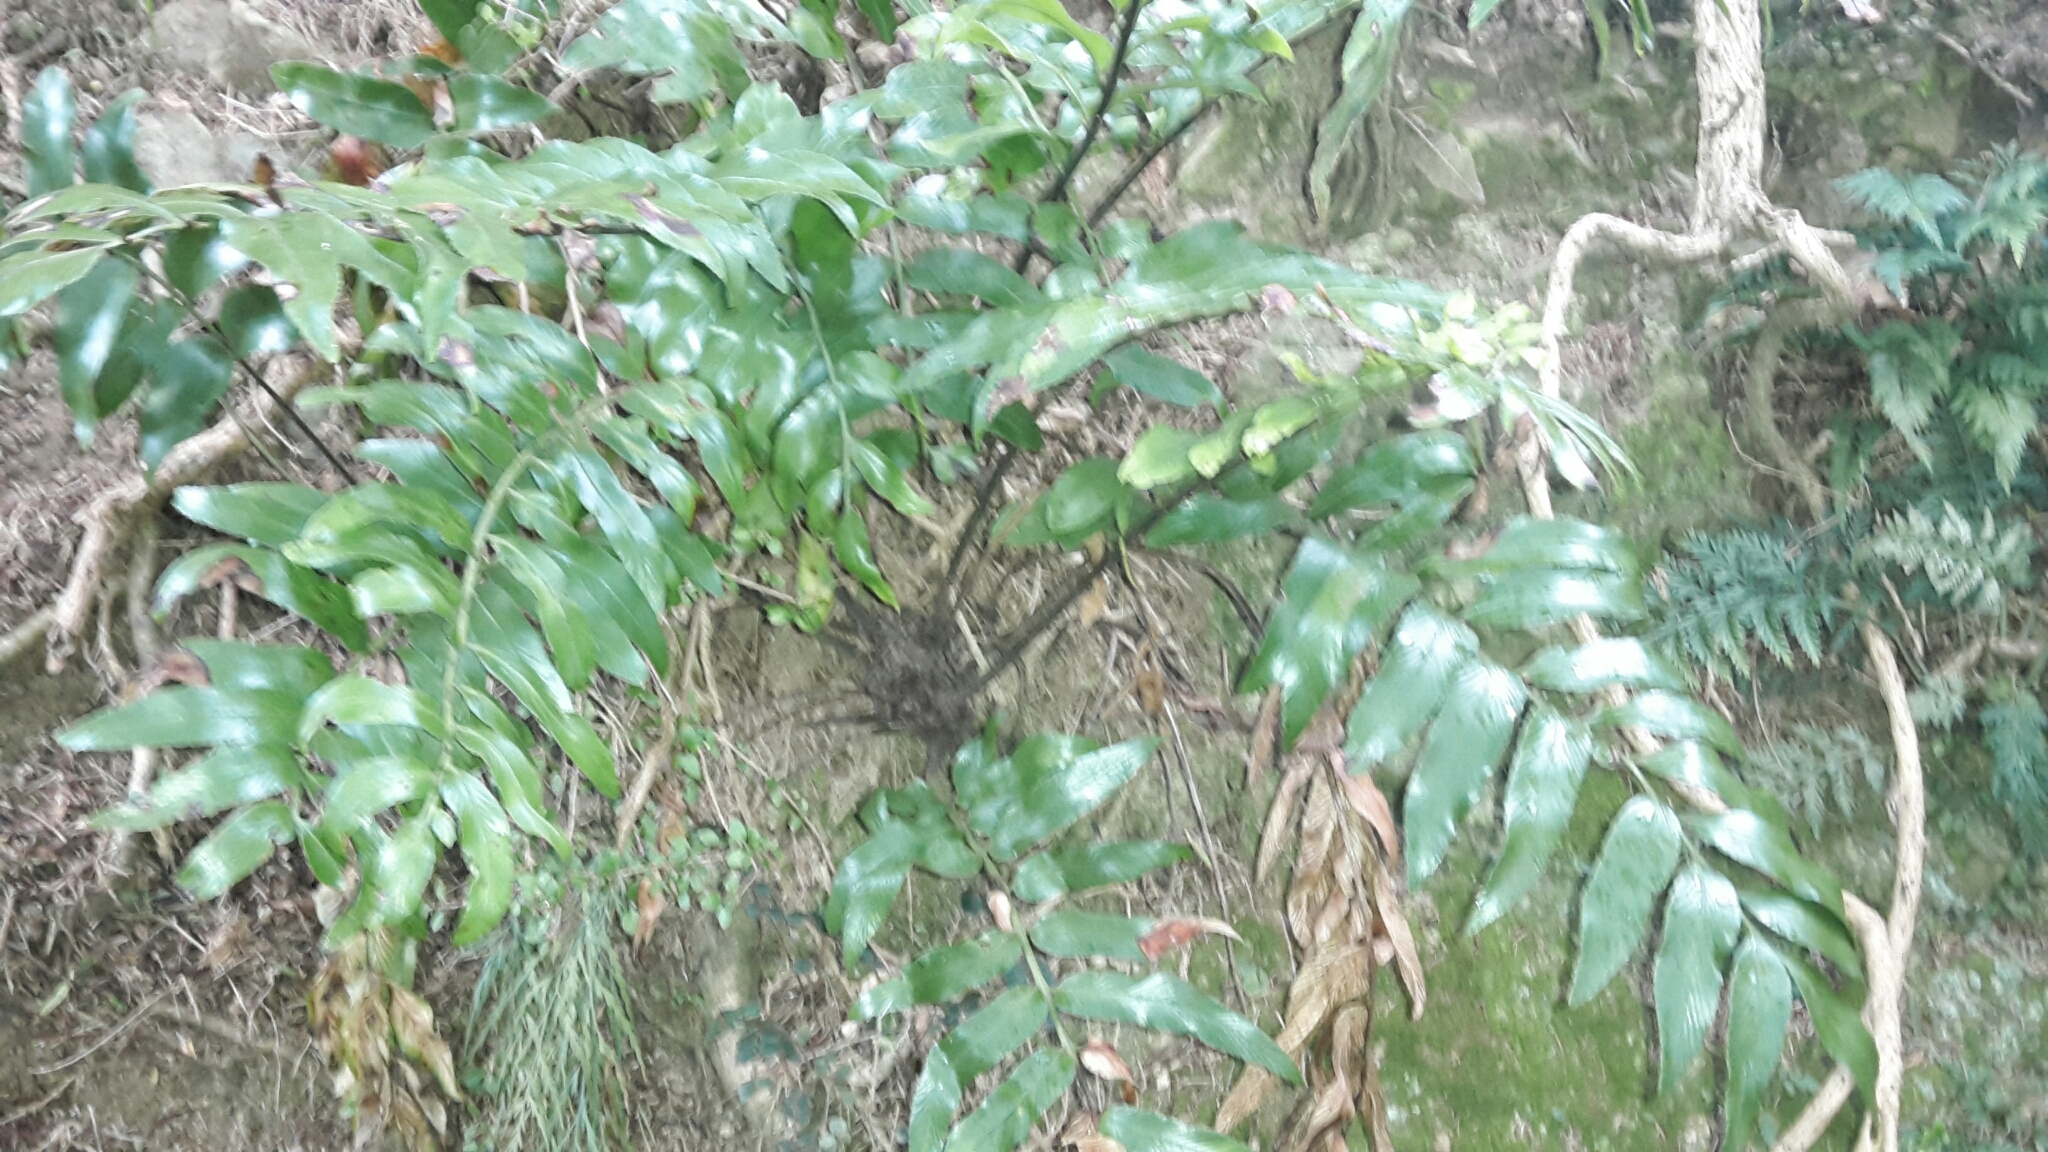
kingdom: Plantae
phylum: Tracheophyta
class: Polypodiopsida
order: Polypodiales
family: Aspleniaceae
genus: Asplenium
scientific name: Asplenium oblongifolium
